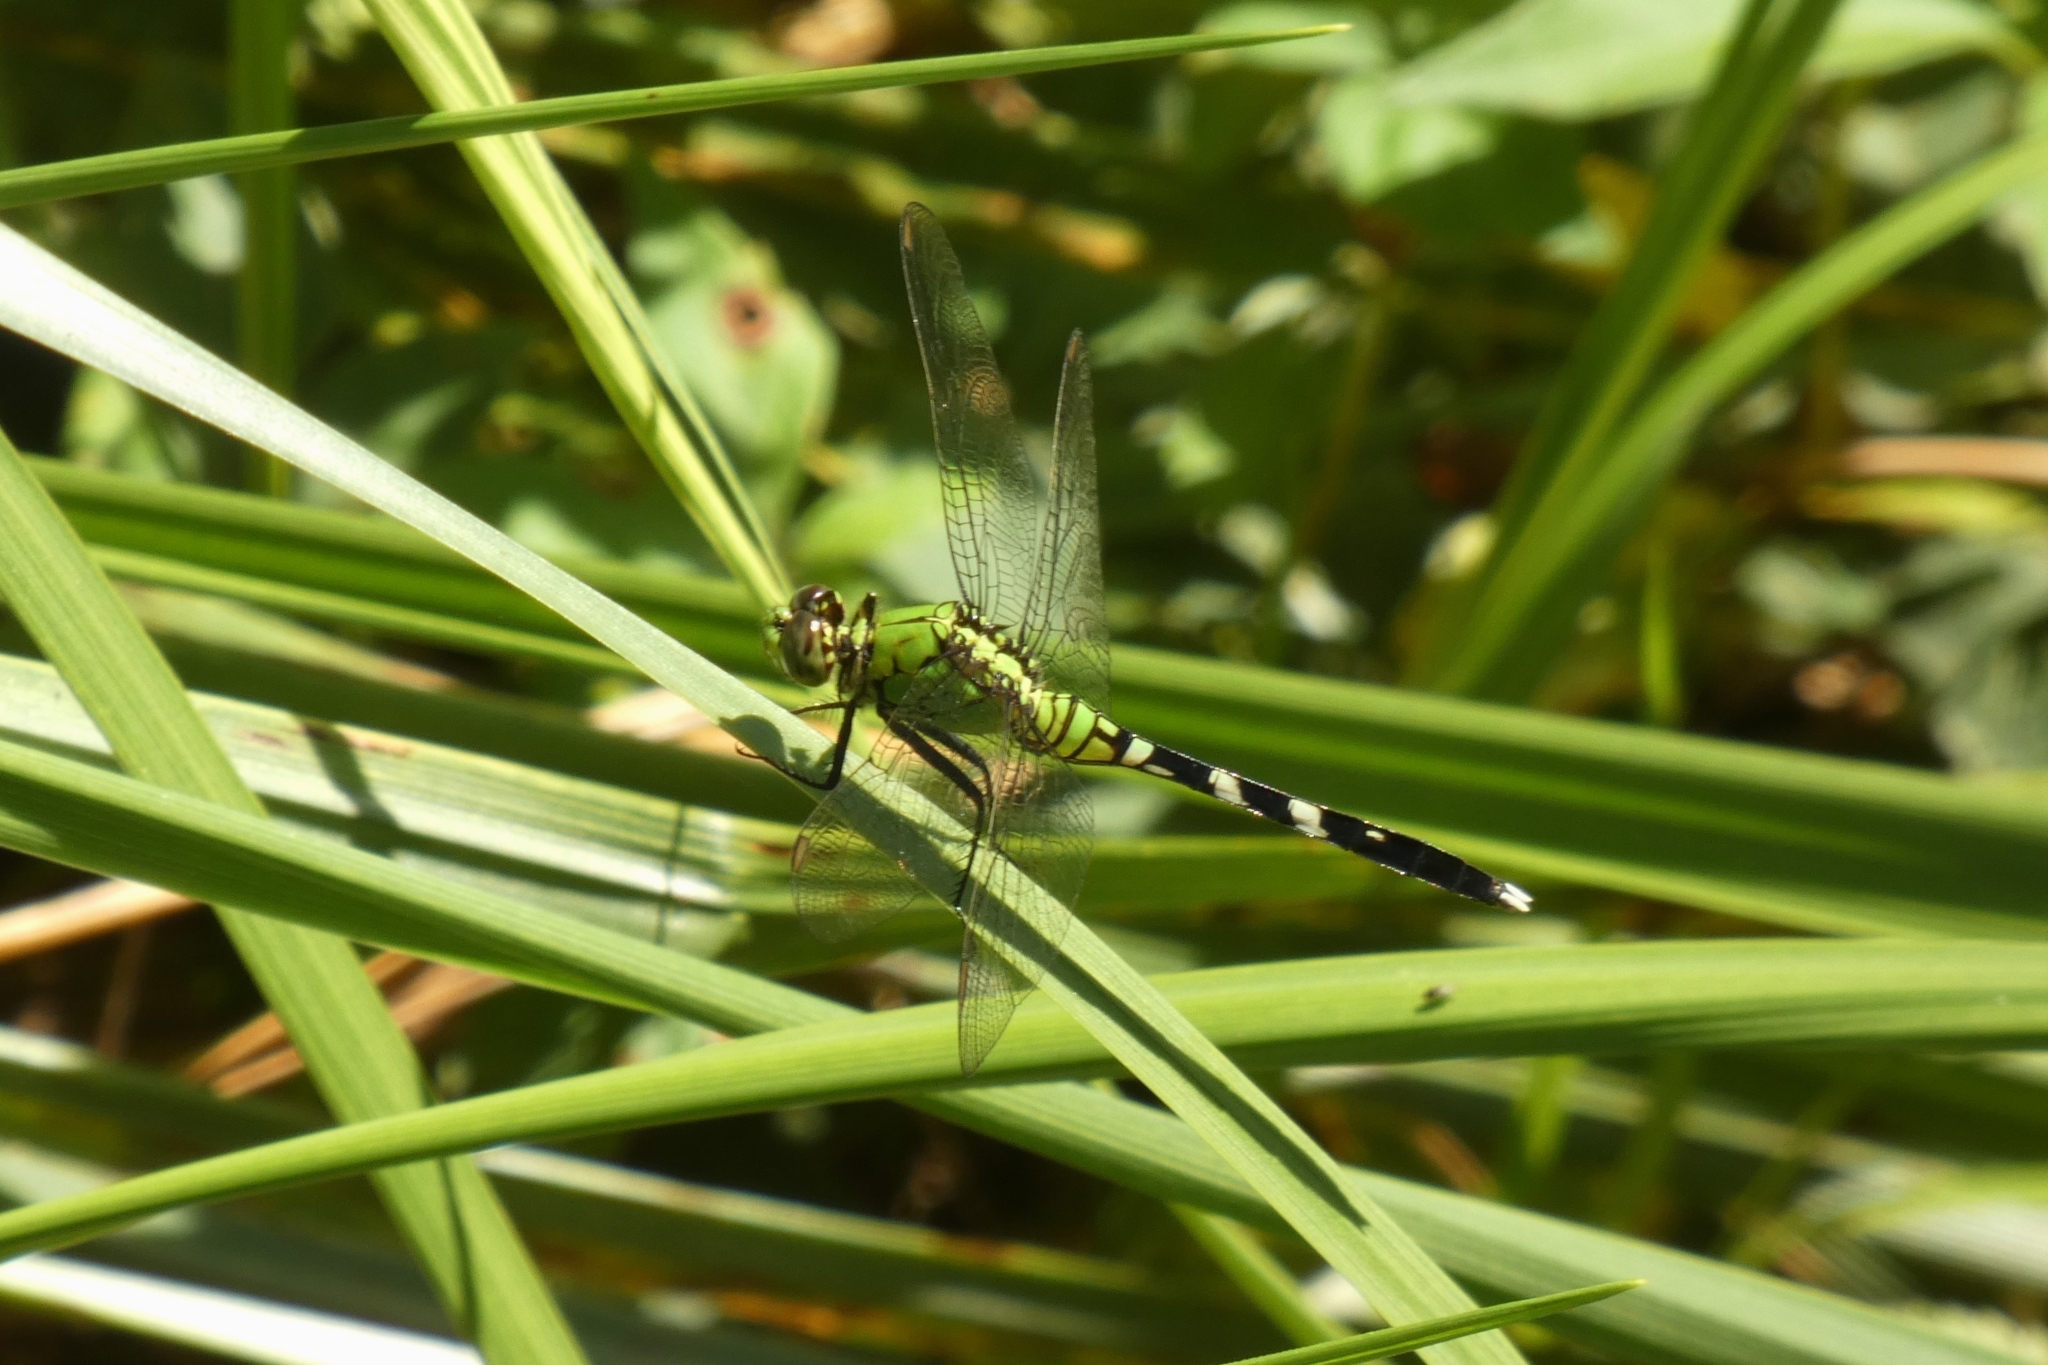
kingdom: Animalia
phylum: Arthropoda
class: Insecta
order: Odonata
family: Libellulidae
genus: Erythemis
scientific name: Erythemis simplicicollis
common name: Eastern pondhawk
